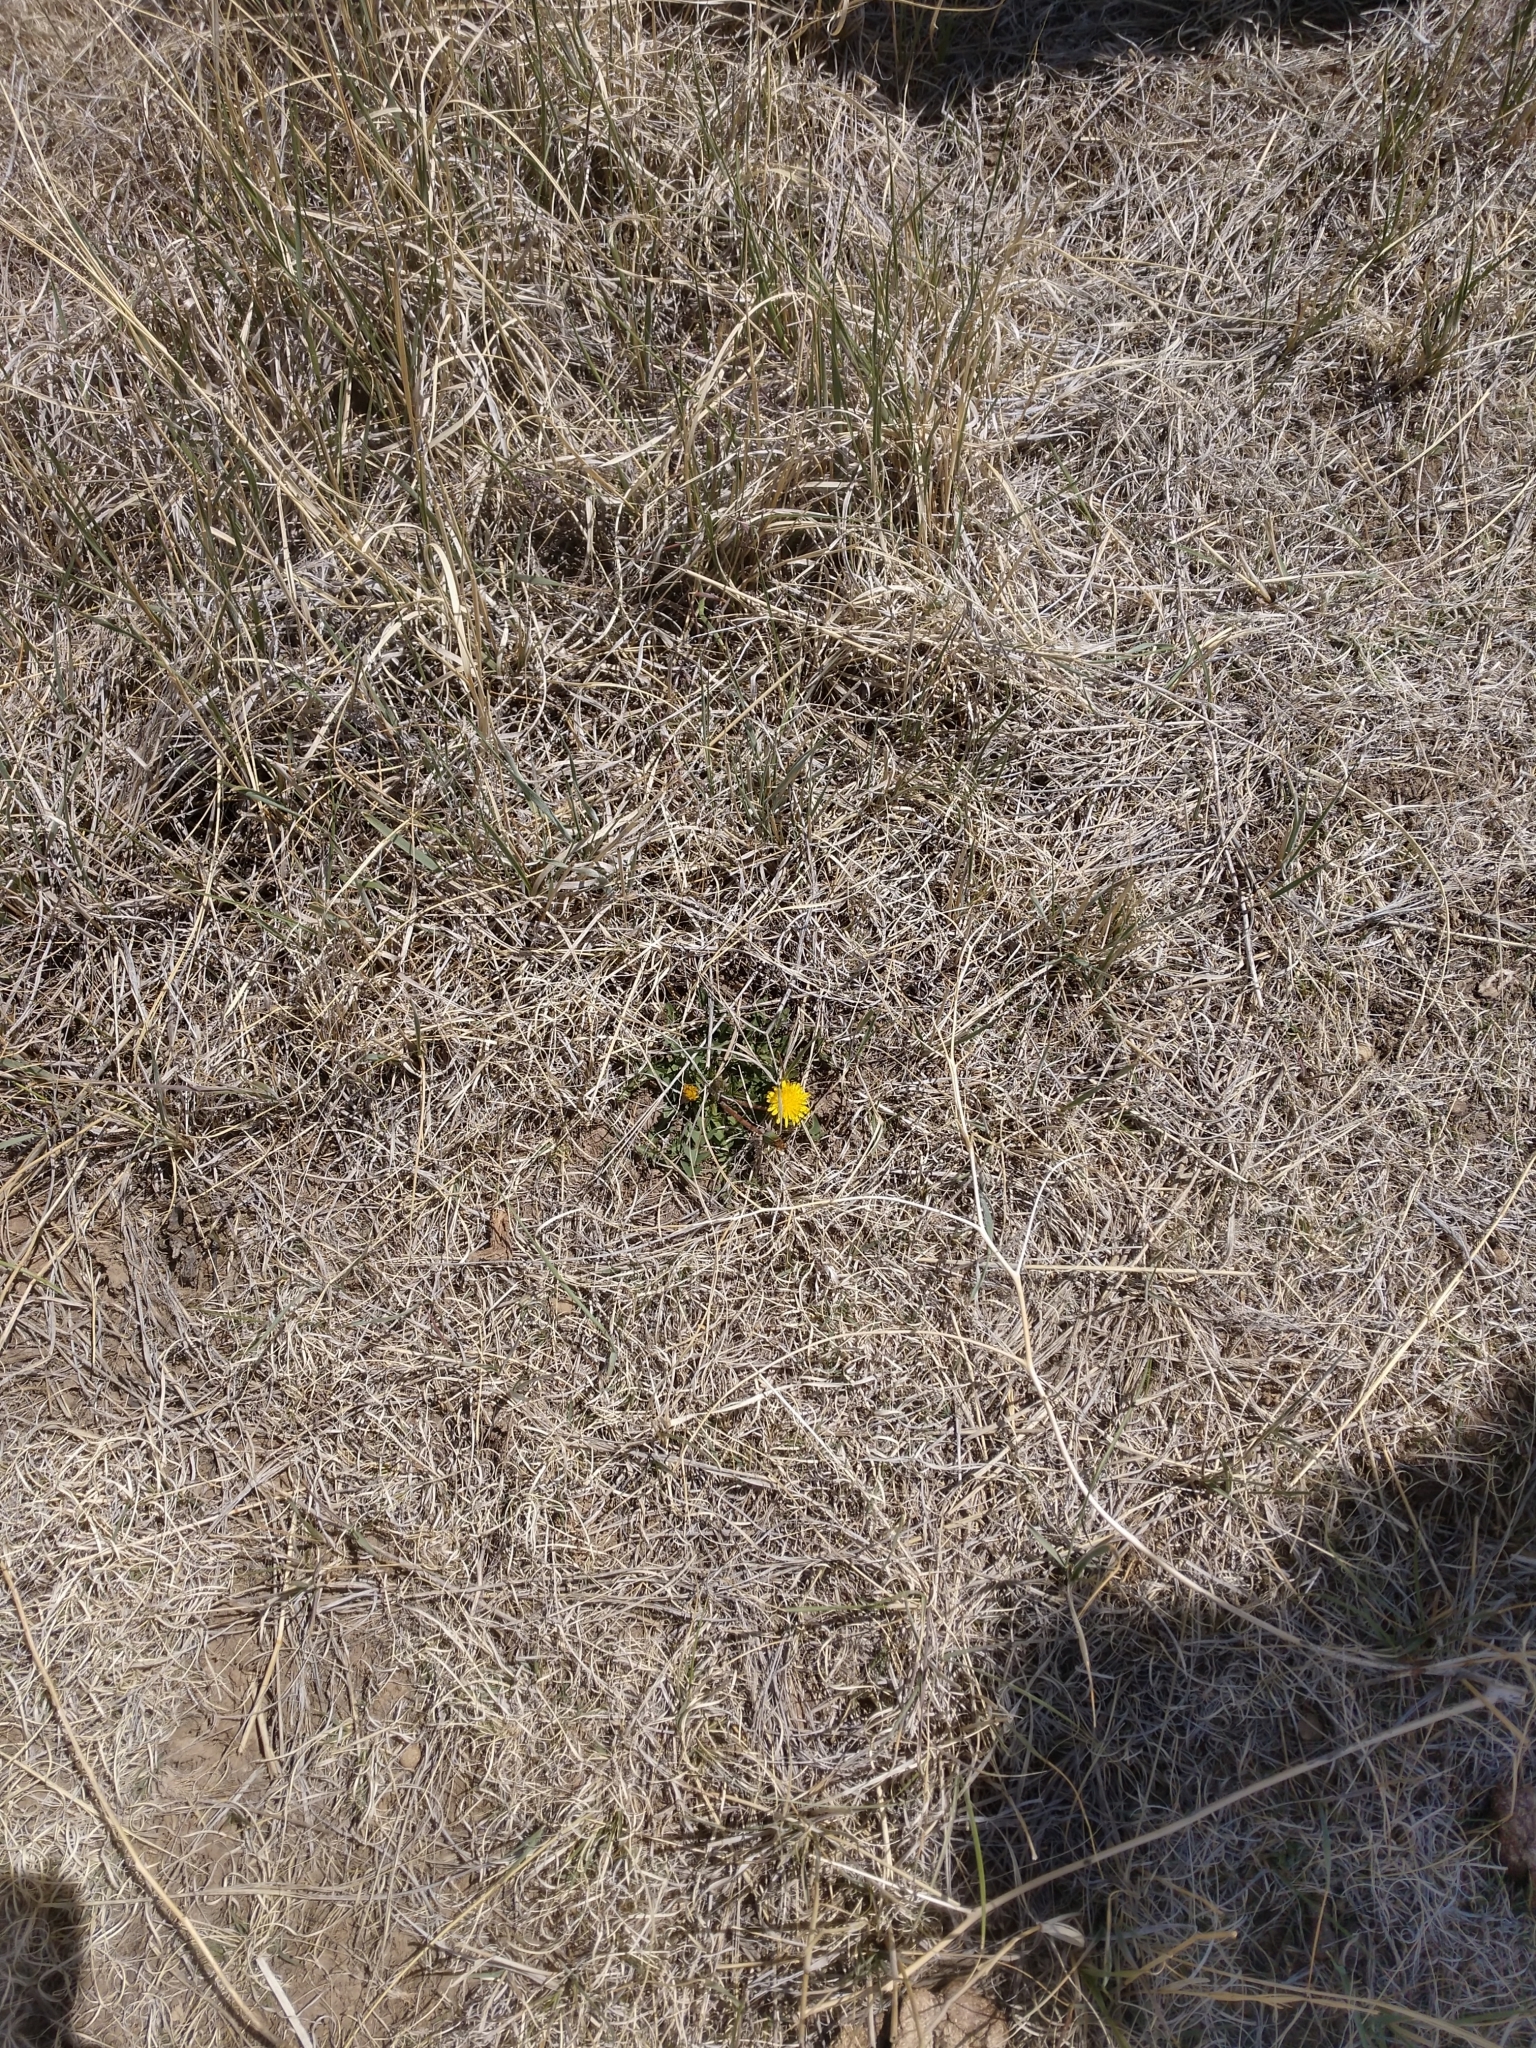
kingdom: Plantae
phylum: Tracheophyta
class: Magnoliopsida
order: Asterales
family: Asteraceae
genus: Taraxacum
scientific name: Taraxacum officinale
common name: Common dandelion
